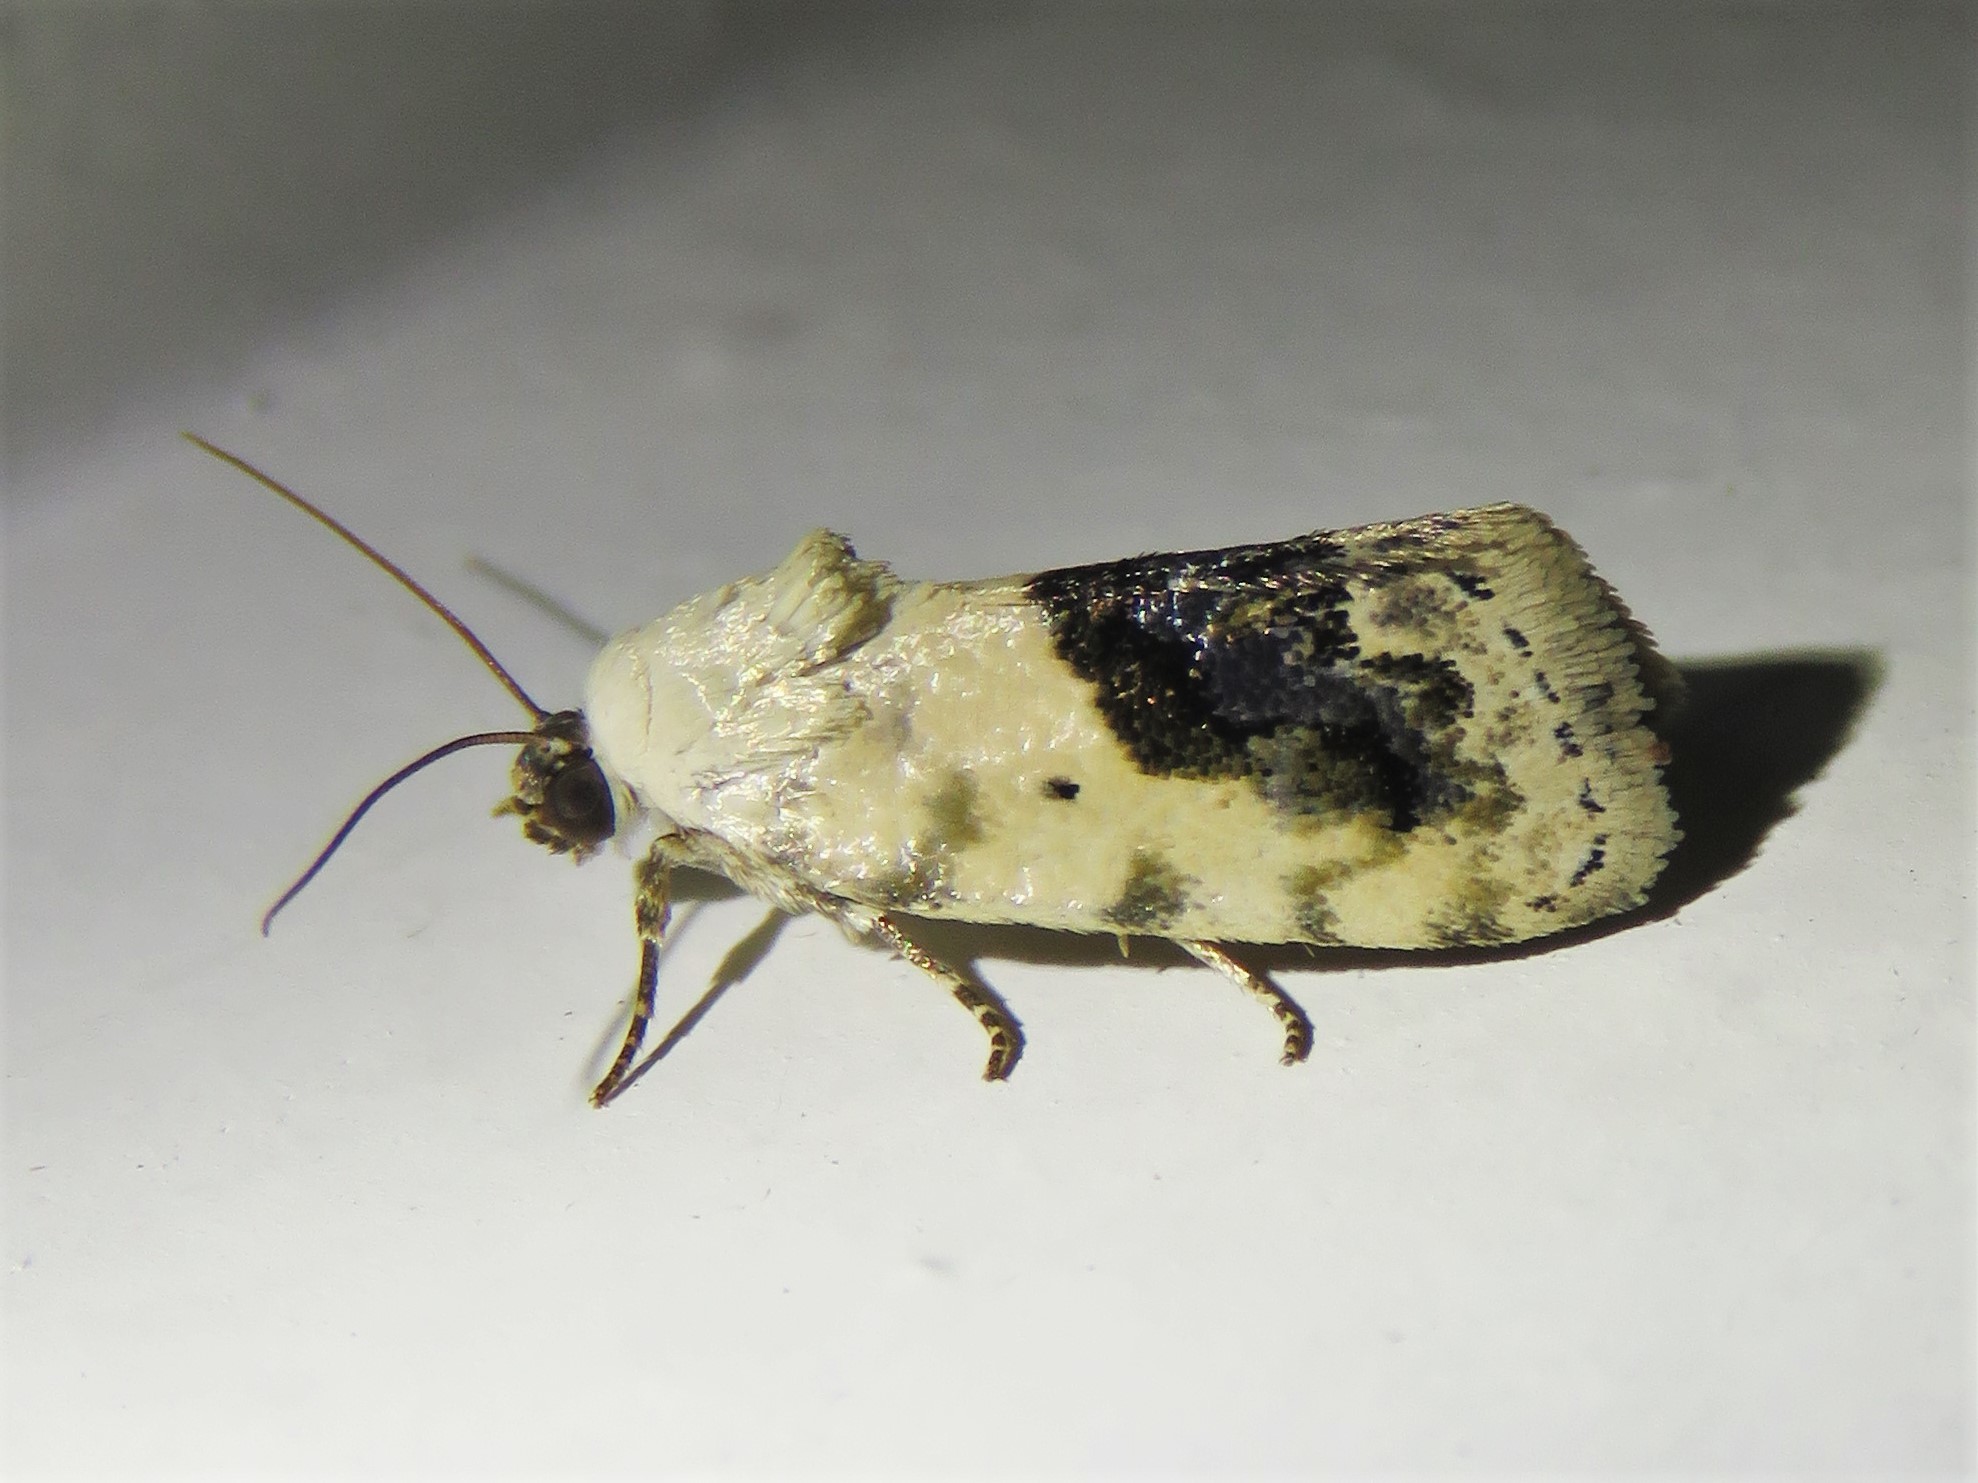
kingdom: Animalia
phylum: Arthropoda
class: Insecta
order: Lepidoptera
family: Noctuidae
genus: Acontia
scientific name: Acontia erastrioides
